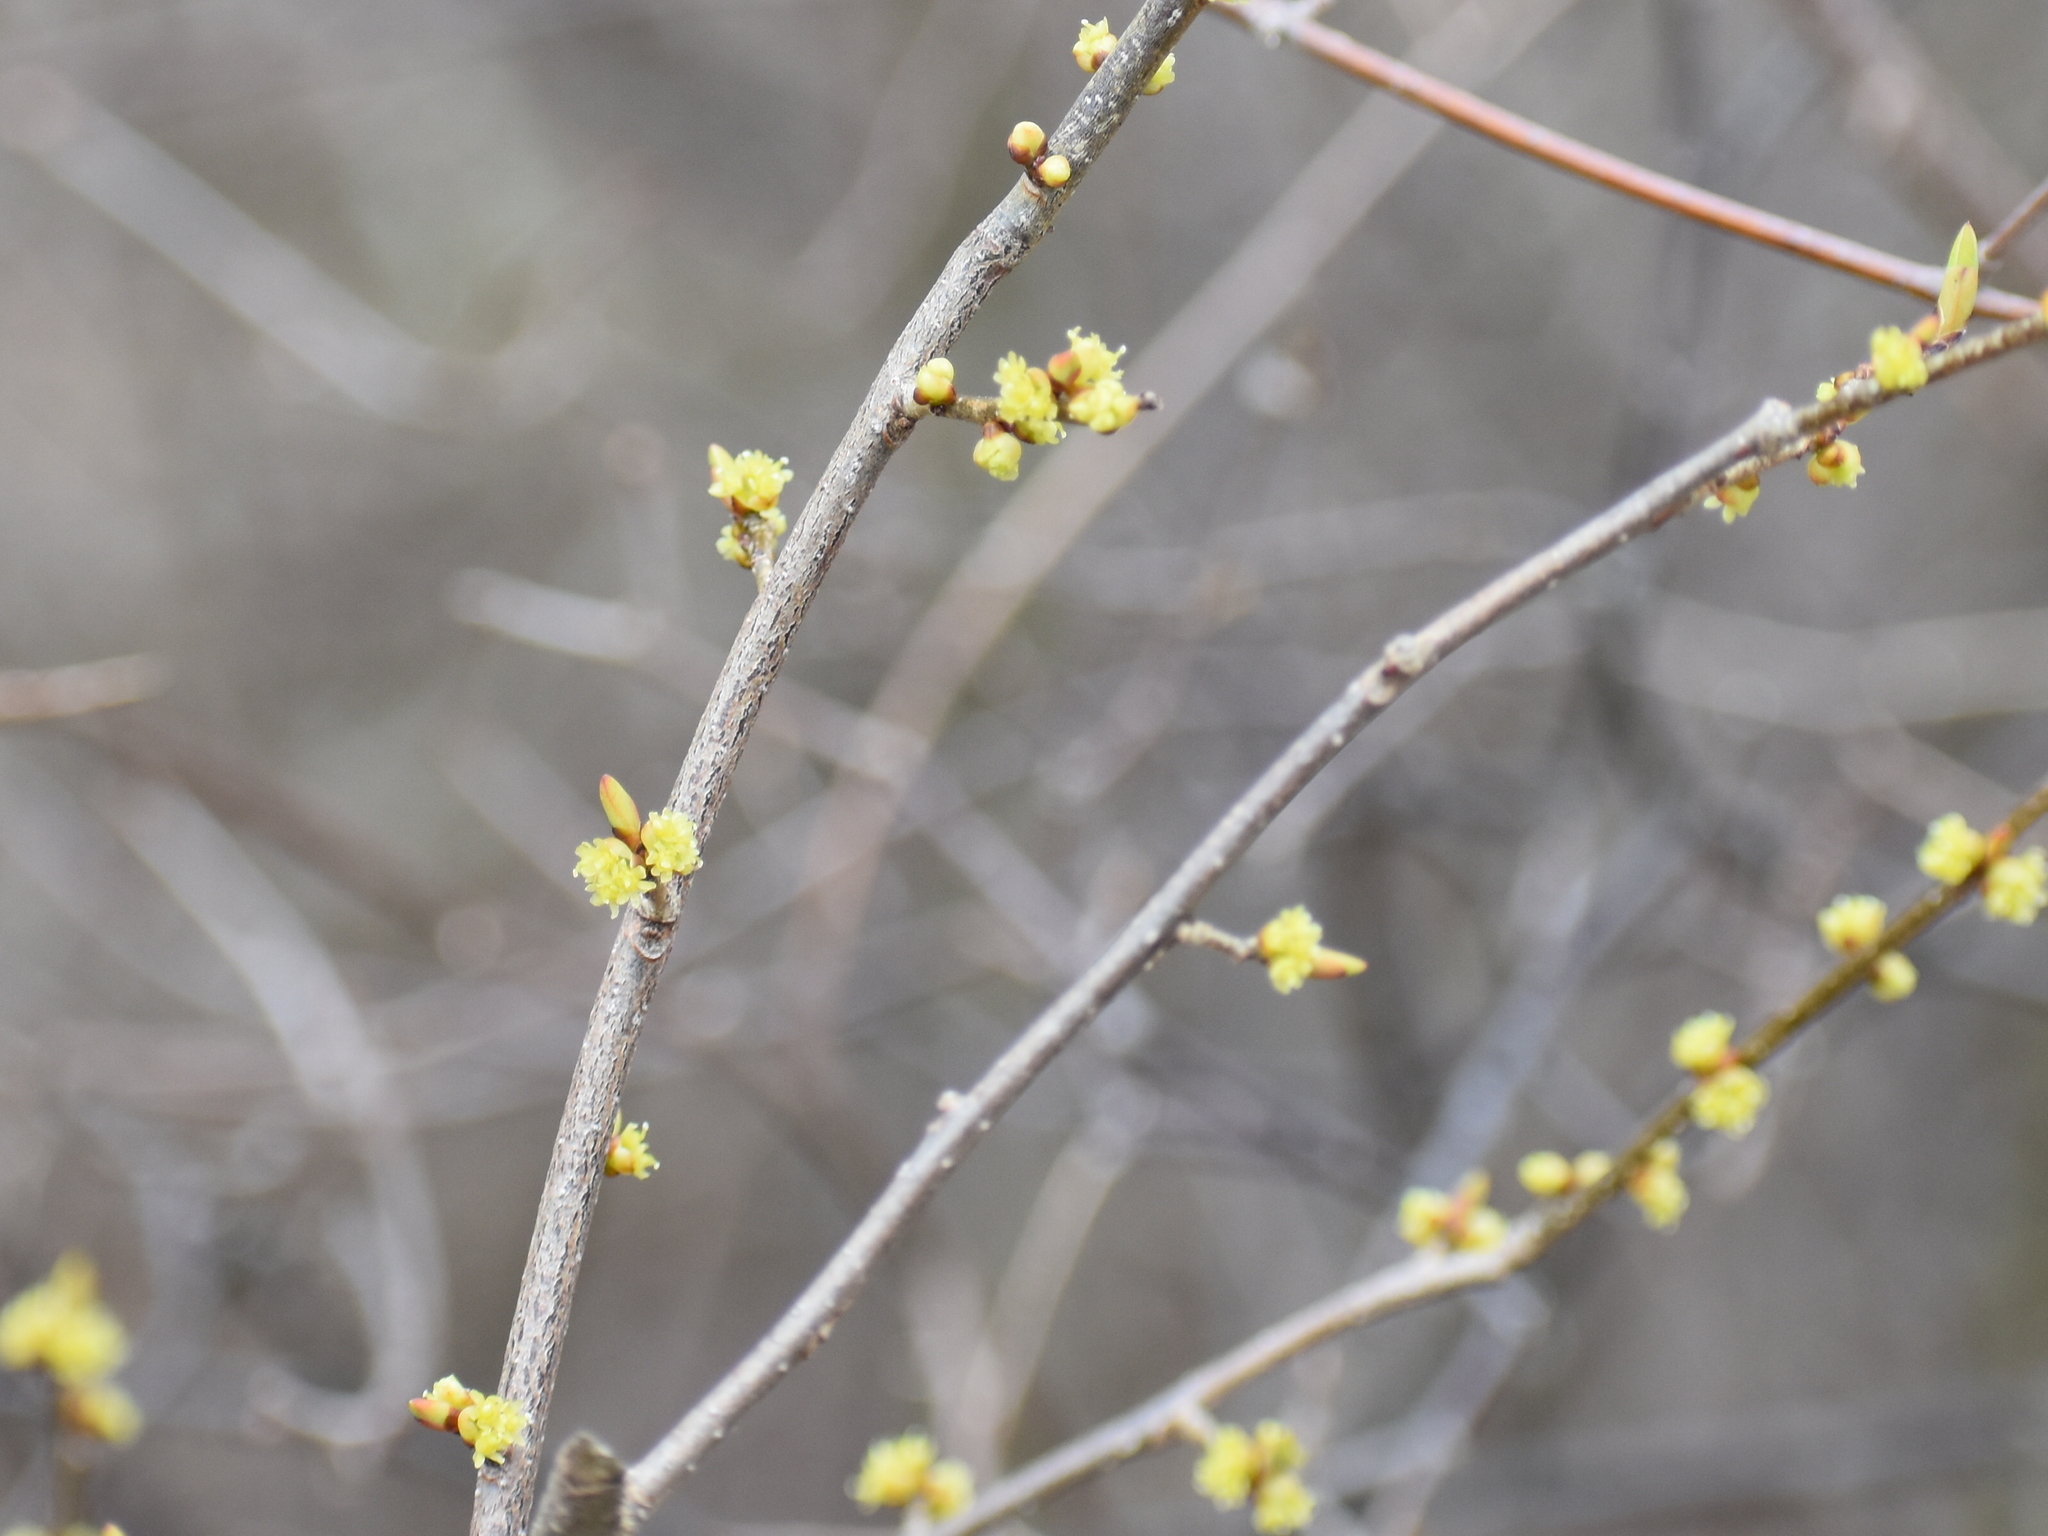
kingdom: Plantae
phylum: Tracheophyta
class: Magnoliopsida
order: Laurales
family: Lauraceae
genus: Lindera
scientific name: Lindera benzoin
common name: Spicebush
